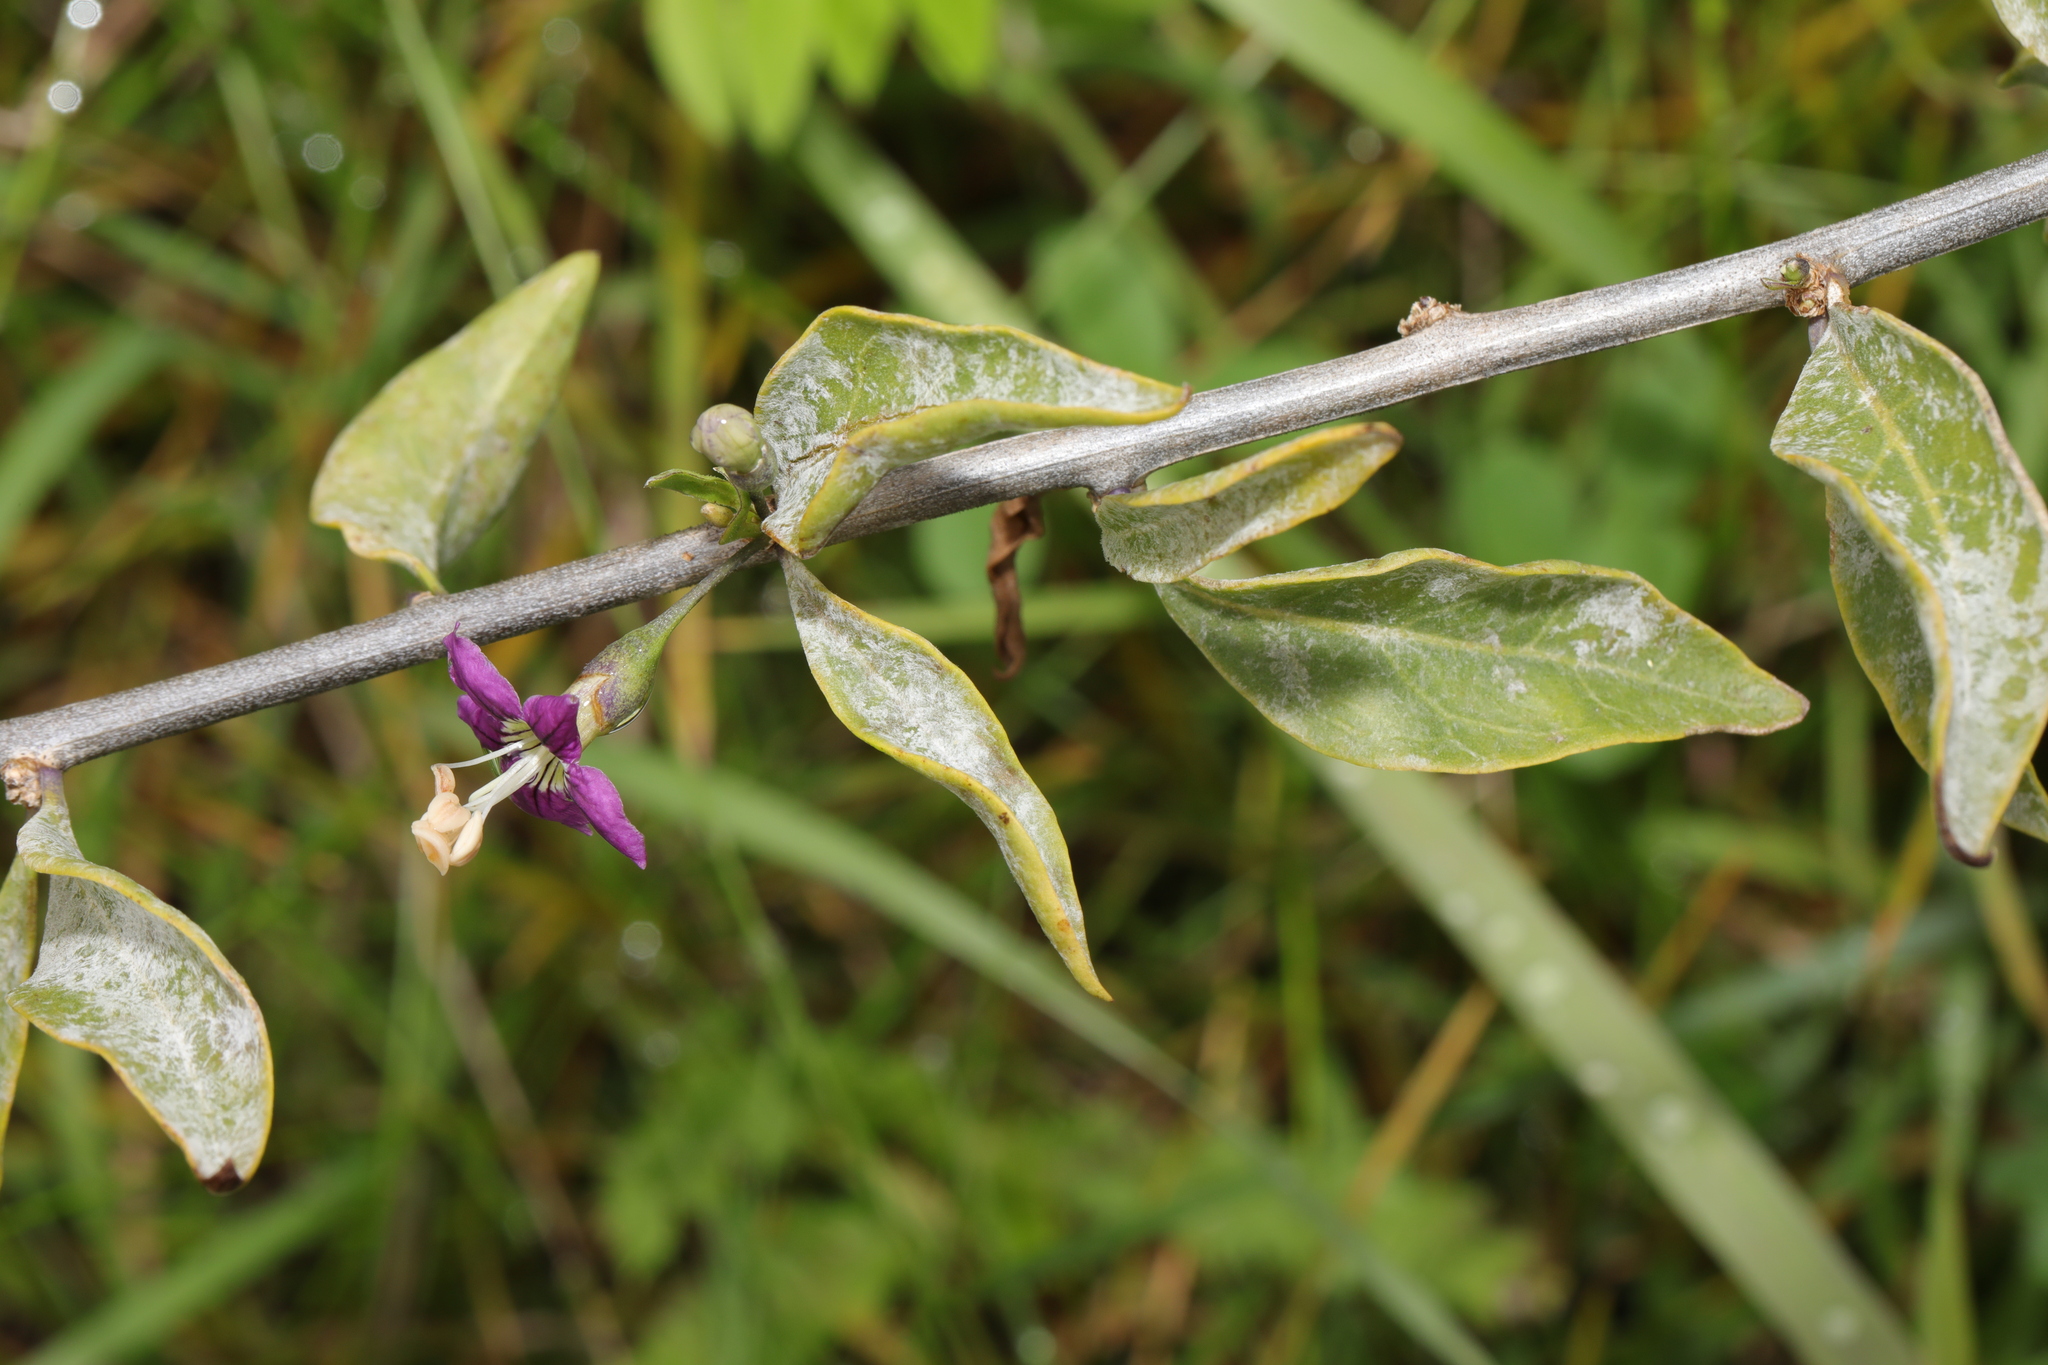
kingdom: Plantae
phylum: Tracheophyta
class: Magnoliopsida
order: Solanales
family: Solanaceae
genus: Lycium
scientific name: Lycium barbarum
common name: Duke of argyll's teaplant
